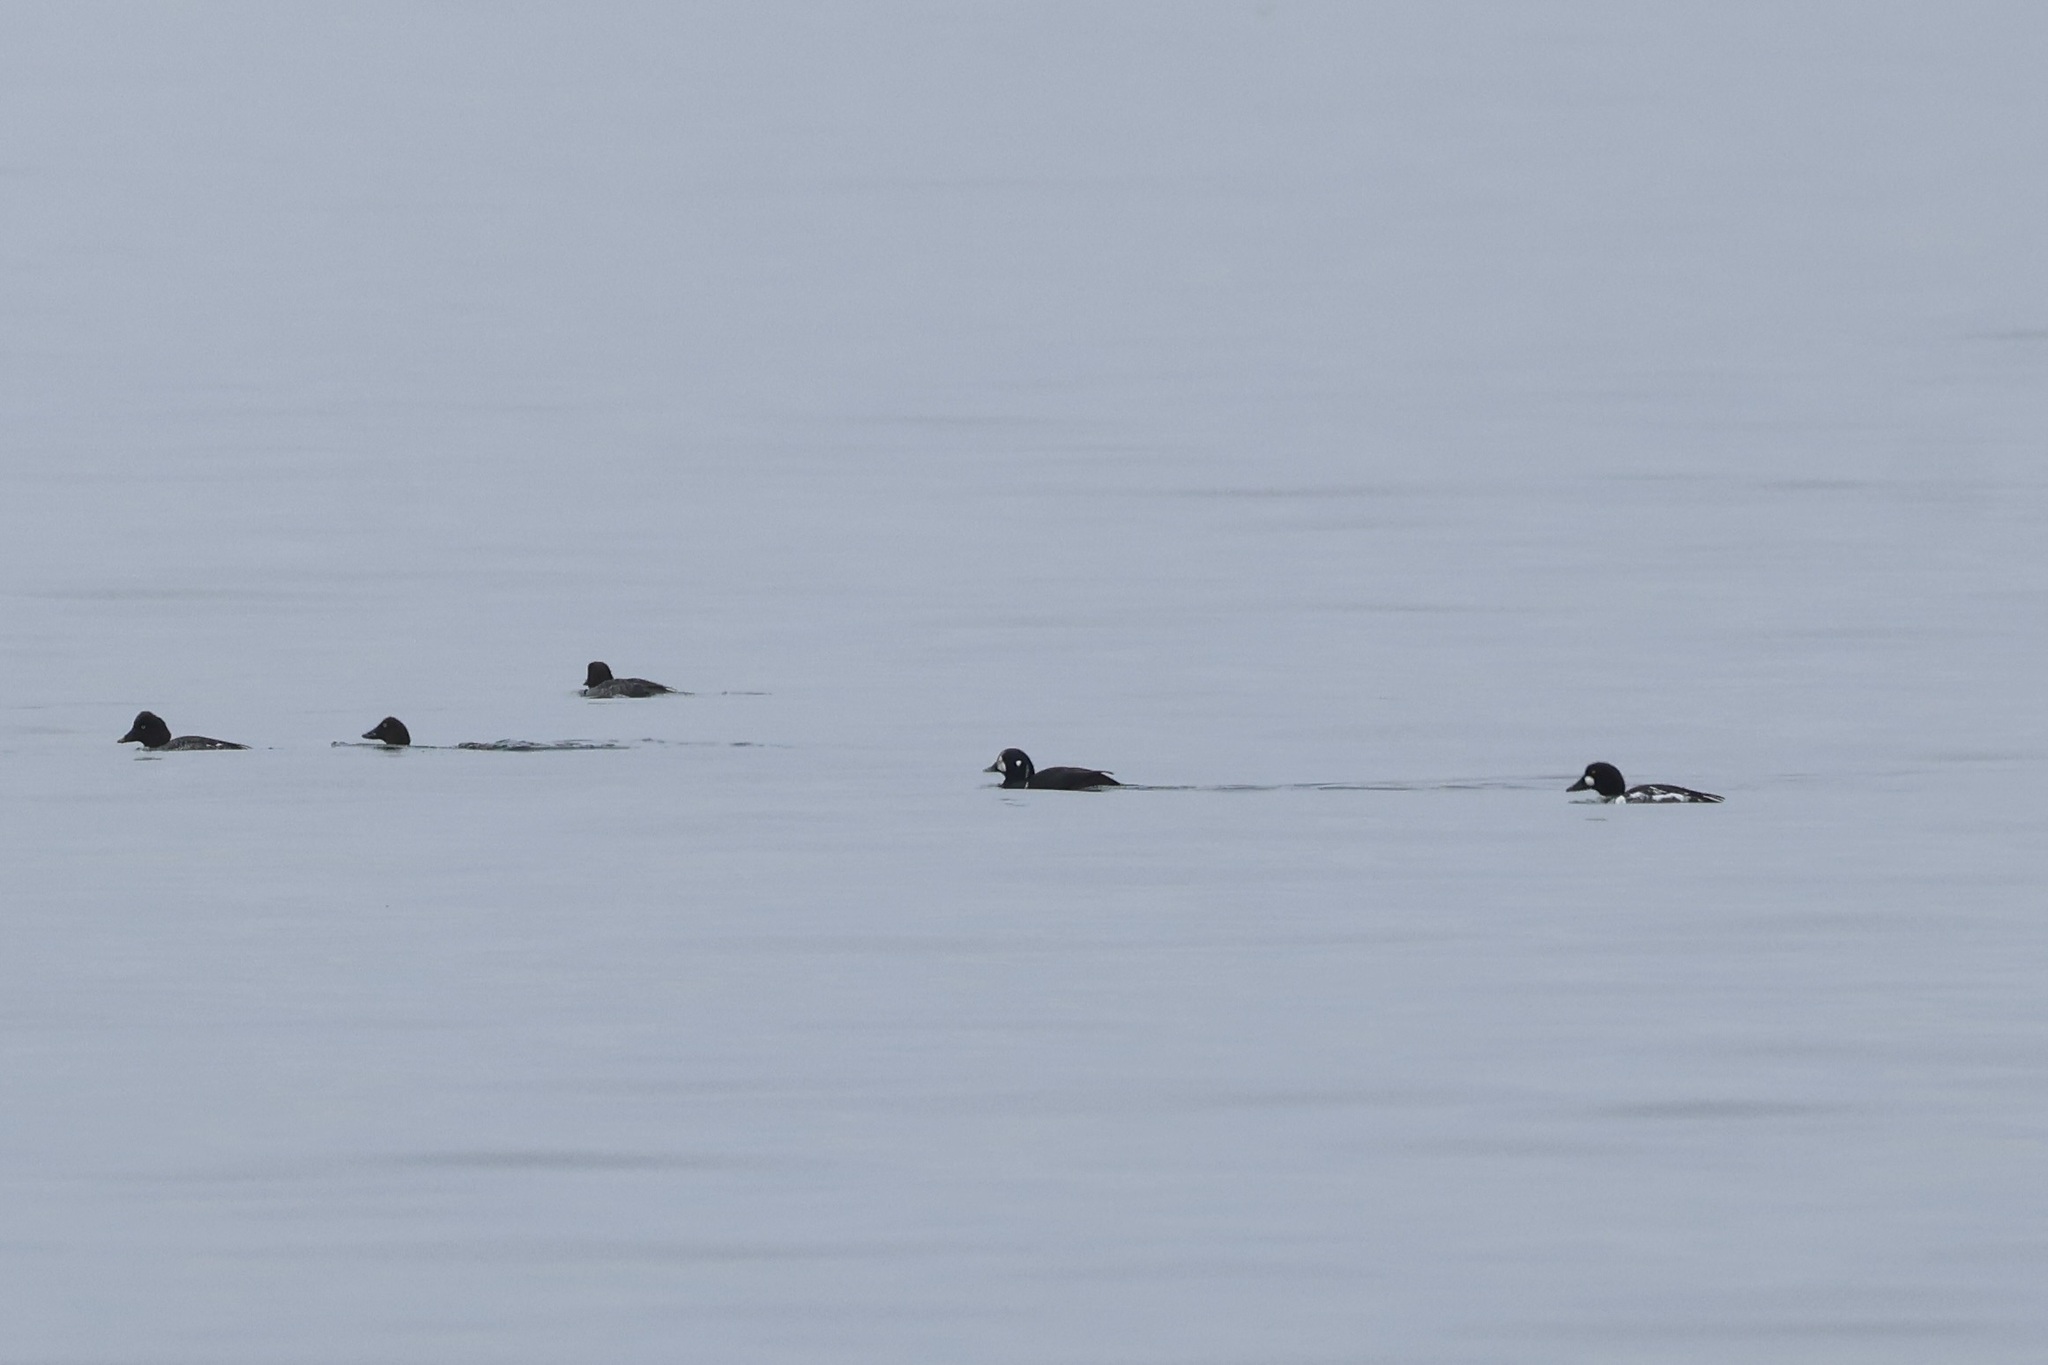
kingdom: Animalia
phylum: Chordata
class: Aves
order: Anseriformes
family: Anatidae
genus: Histrionicus
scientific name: Histrionicus histrionicus
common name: Harlequin duck
